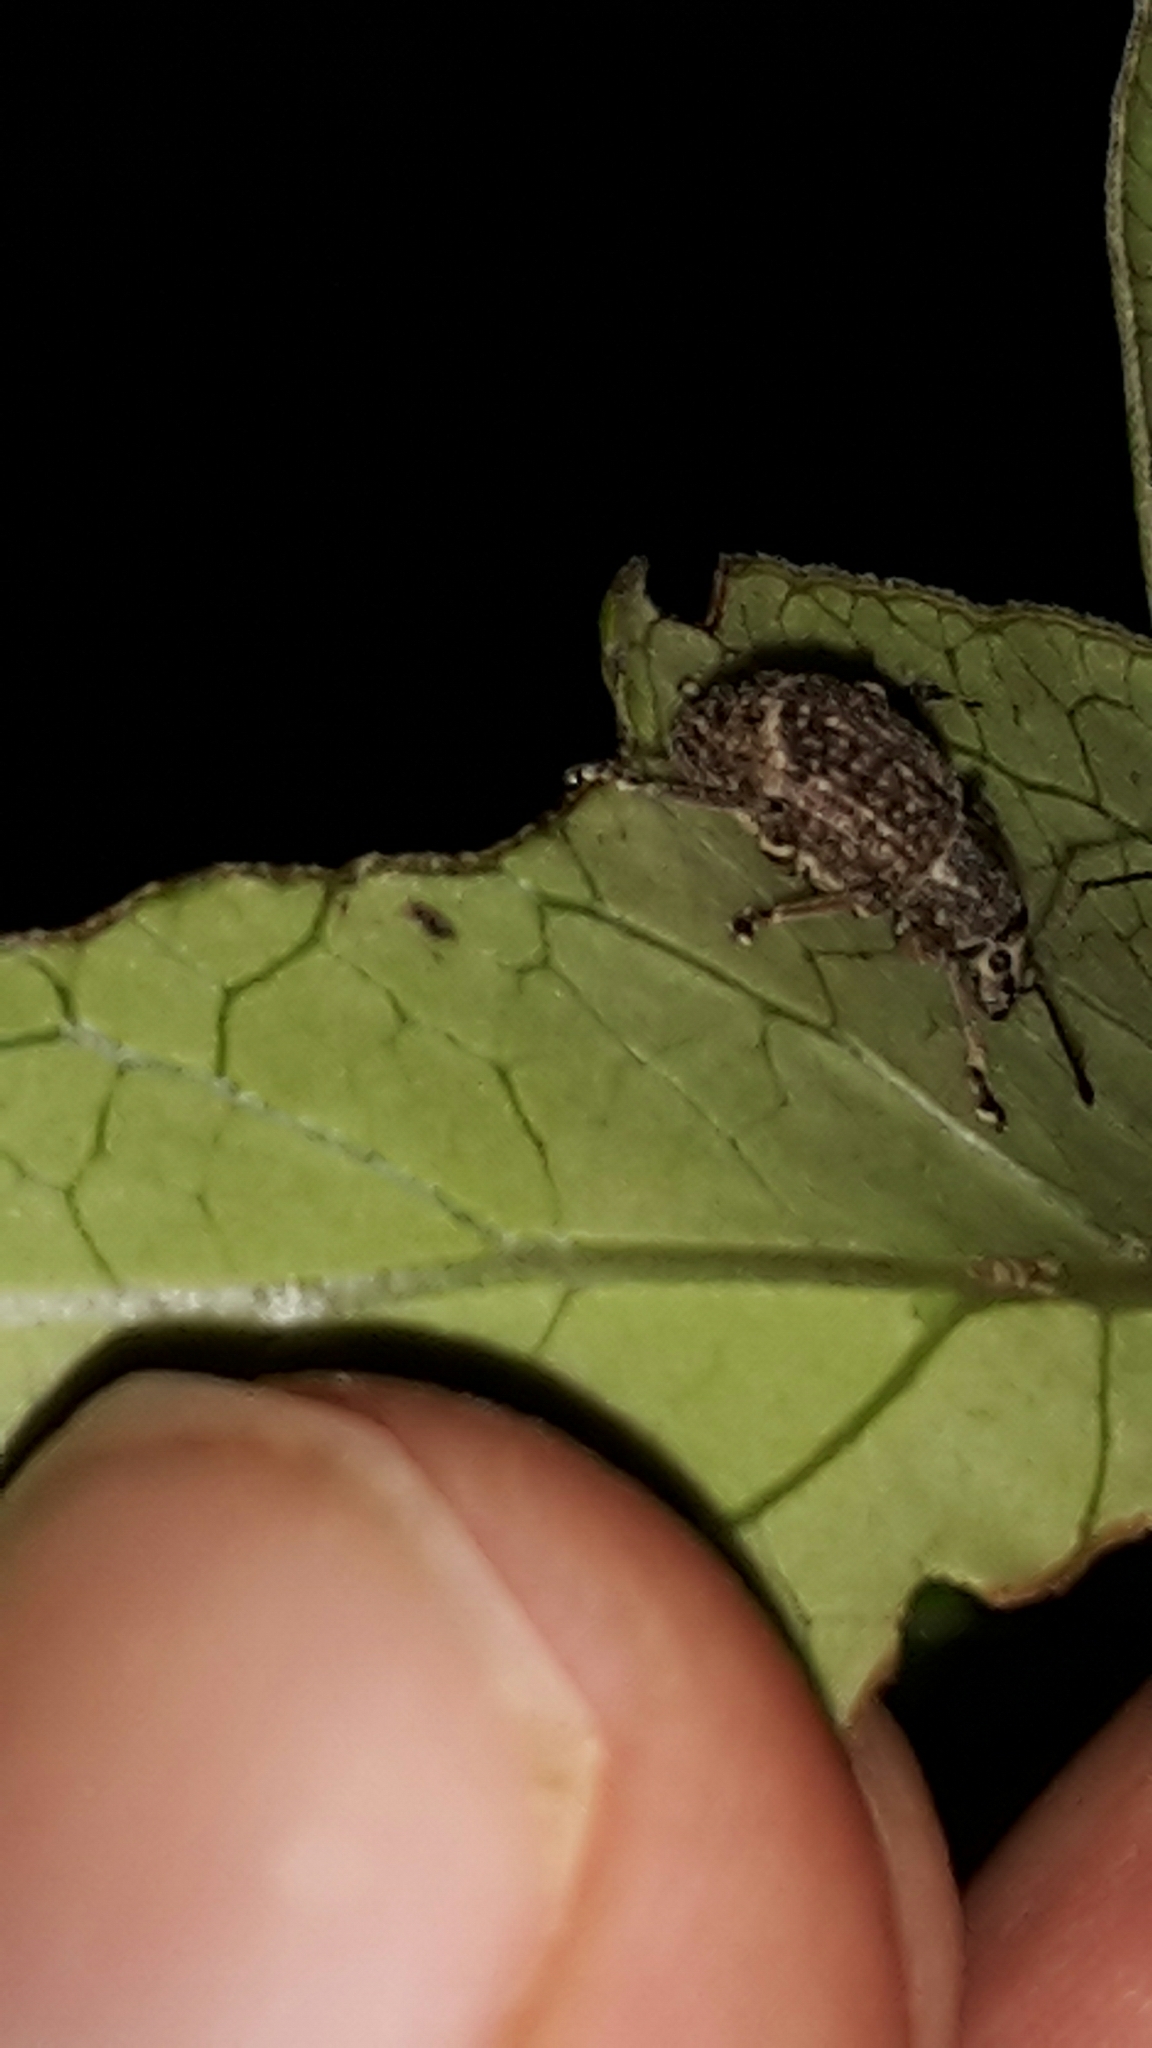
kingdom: Animalia
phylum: Arthropoda
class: Insecta
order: Coleoptera
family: Curculionidae
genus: Phlyctinus
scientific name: Phlyctinus callosus
